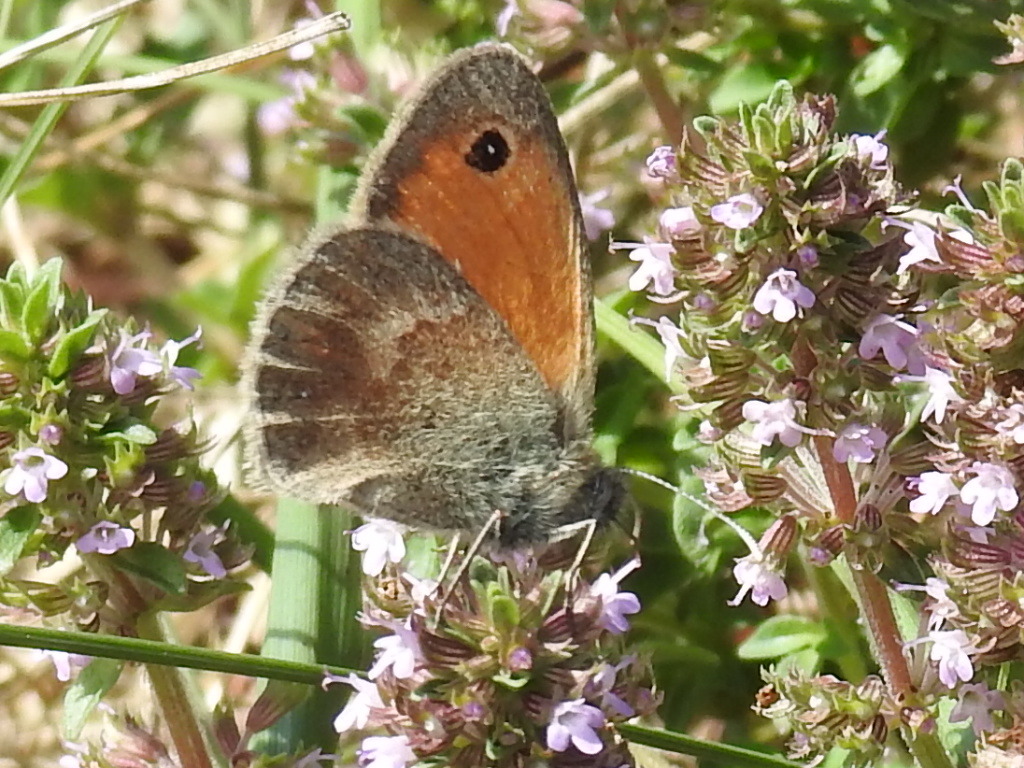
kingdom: Animalia
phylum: Arthropoda
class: Insecta
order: Lepidoptera
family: Nymphalidae
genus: Coenonympha
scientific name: Coenonympha pamphilus
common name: Small heath
